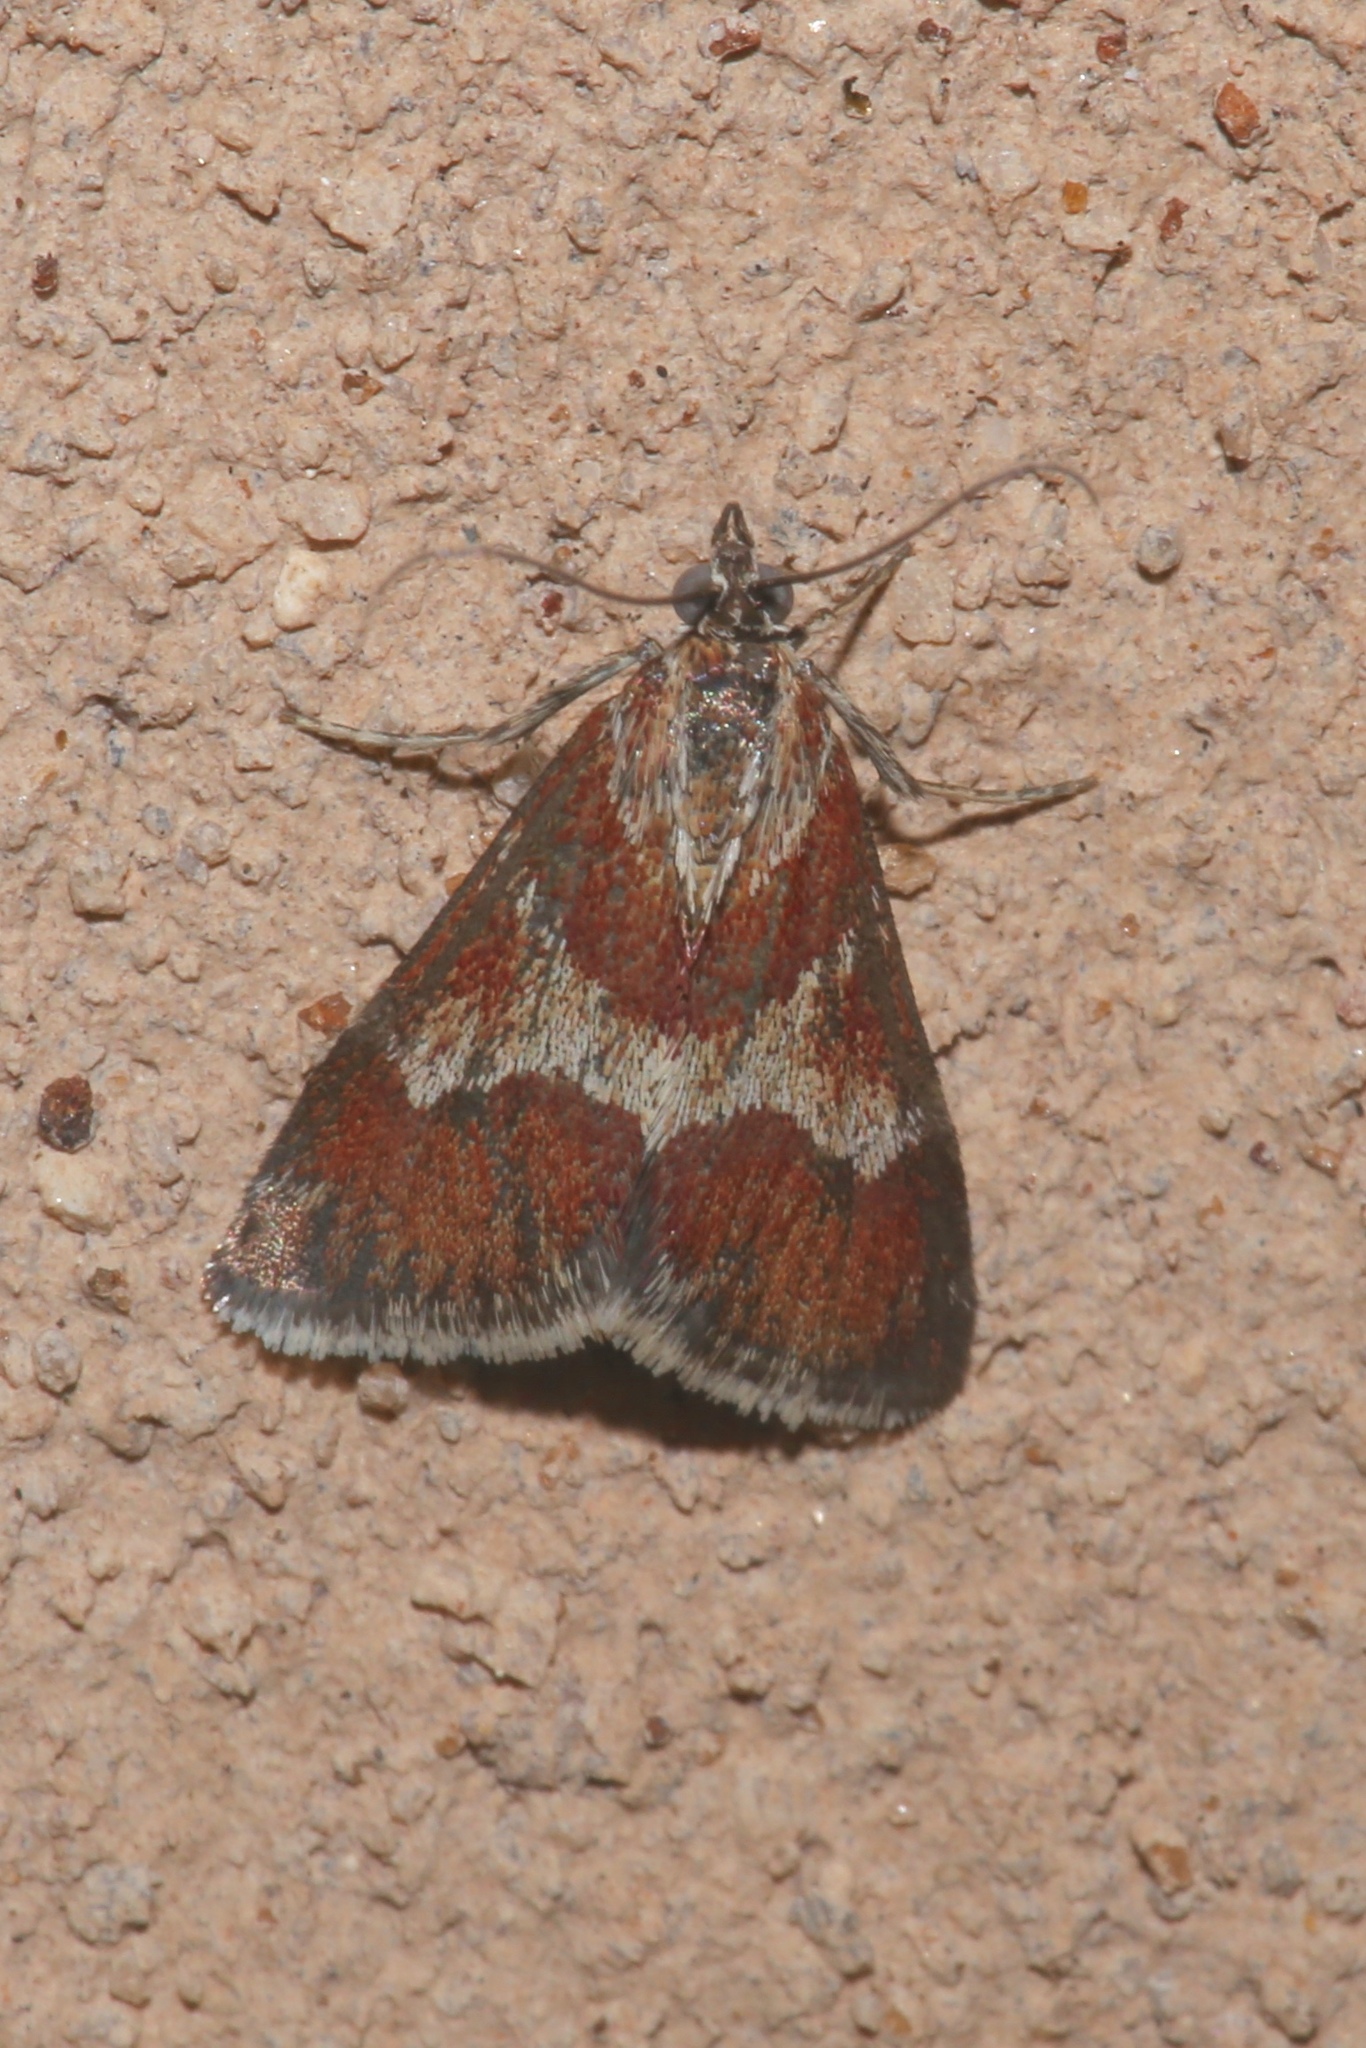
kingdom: Animalia
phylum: Arthropoda
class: Insecta
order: Lepidoptera
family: Crambidae
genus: Noctuelia
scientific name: Noctuelia Mimoschinia rufofascialis
